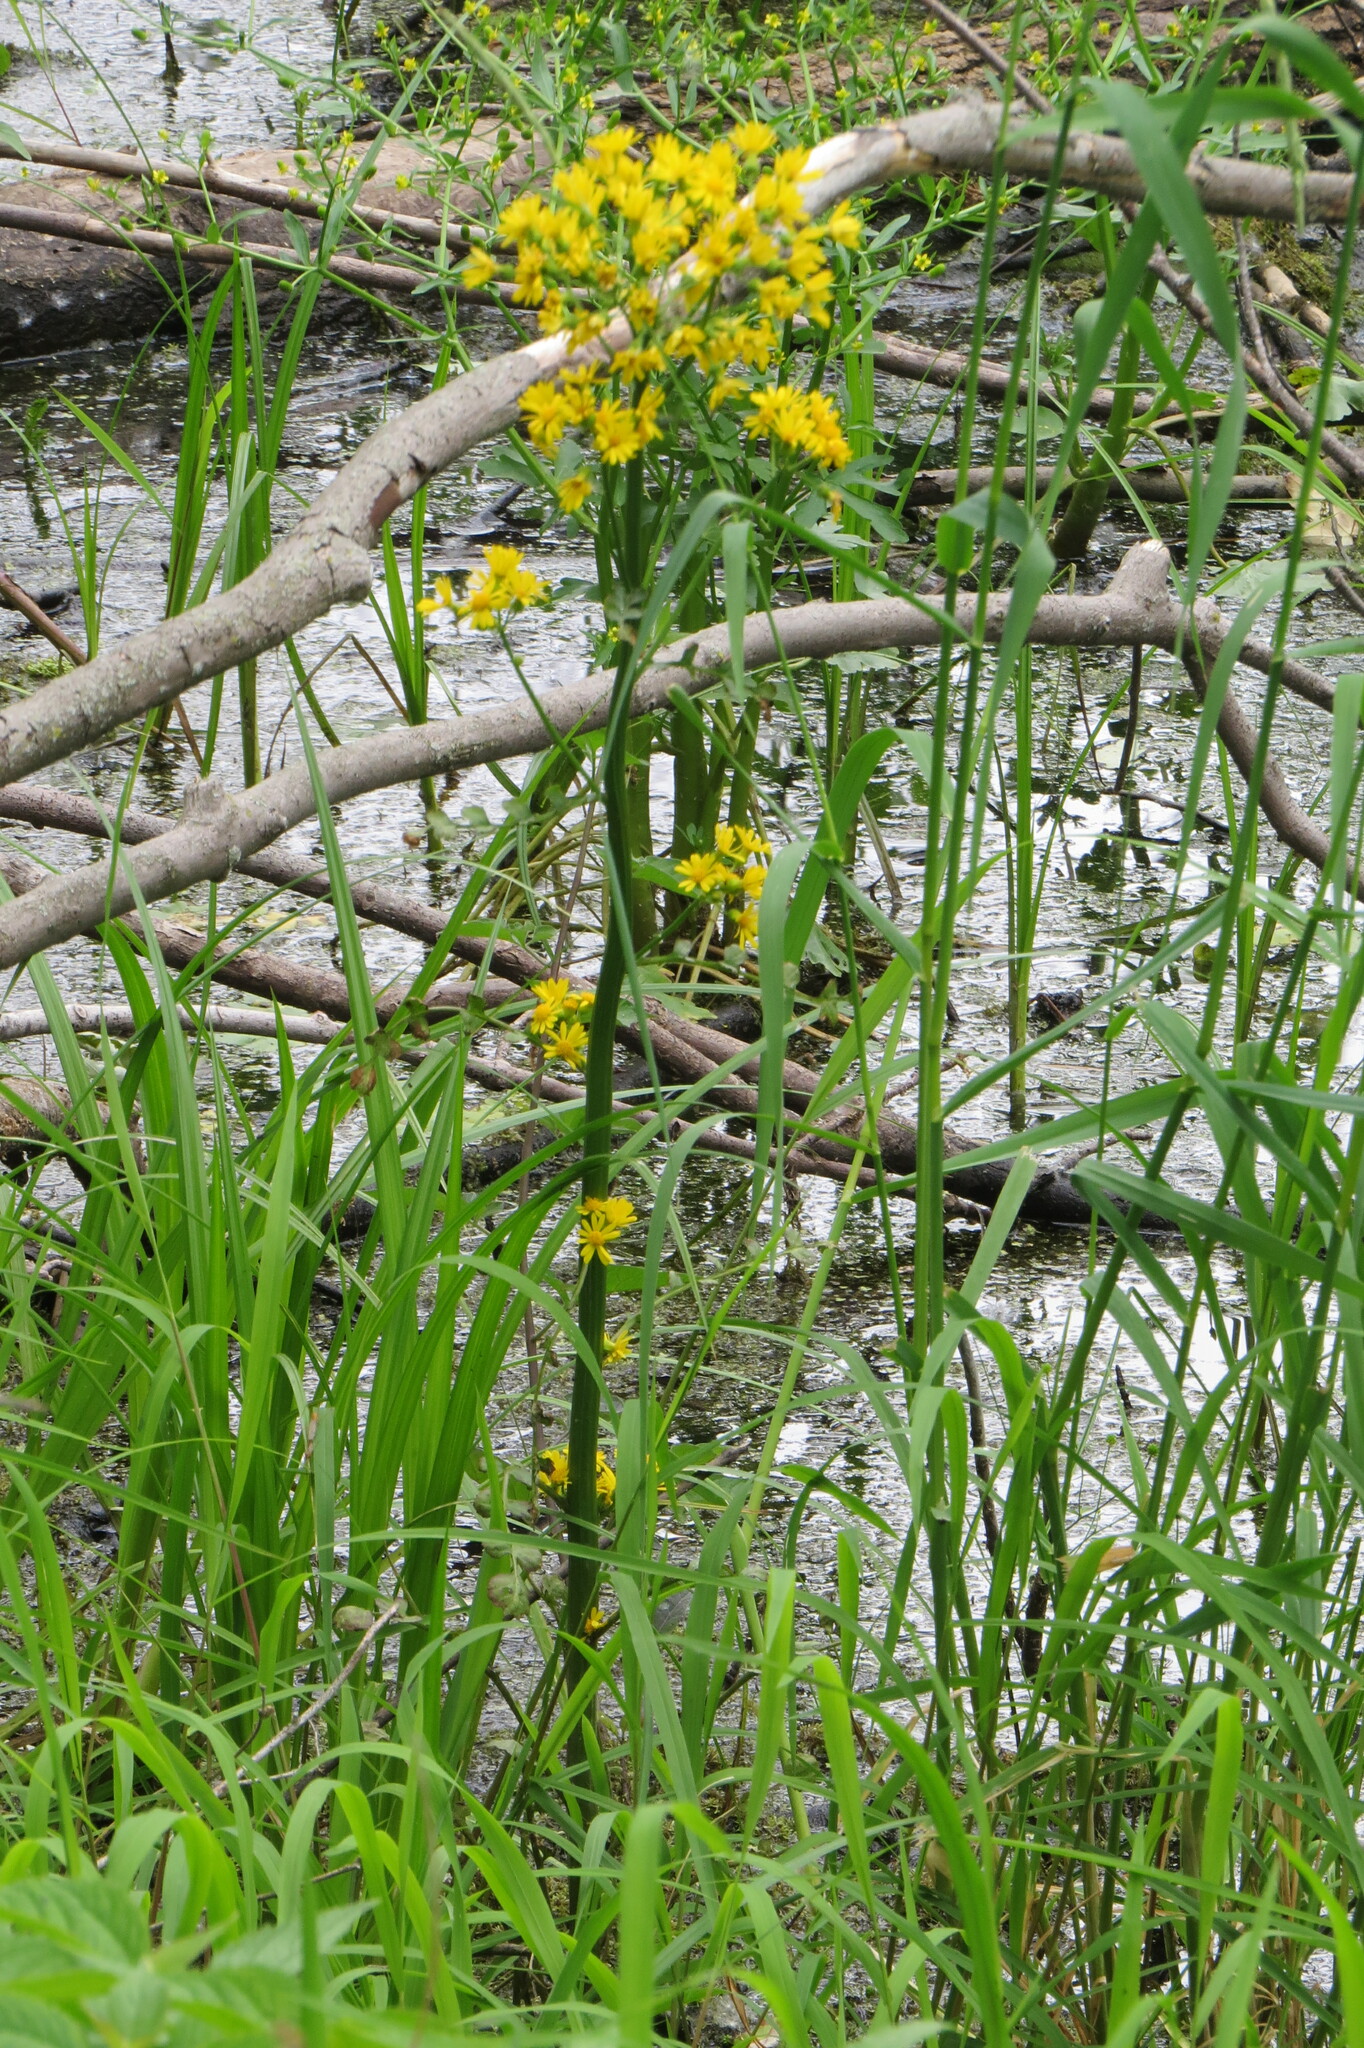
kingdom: Plantae
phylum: Tracheophyta
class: Magnoliopsida
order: Asterales
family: Asteraceae
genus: Packera
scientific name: Packera glabella
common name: Butterweed
